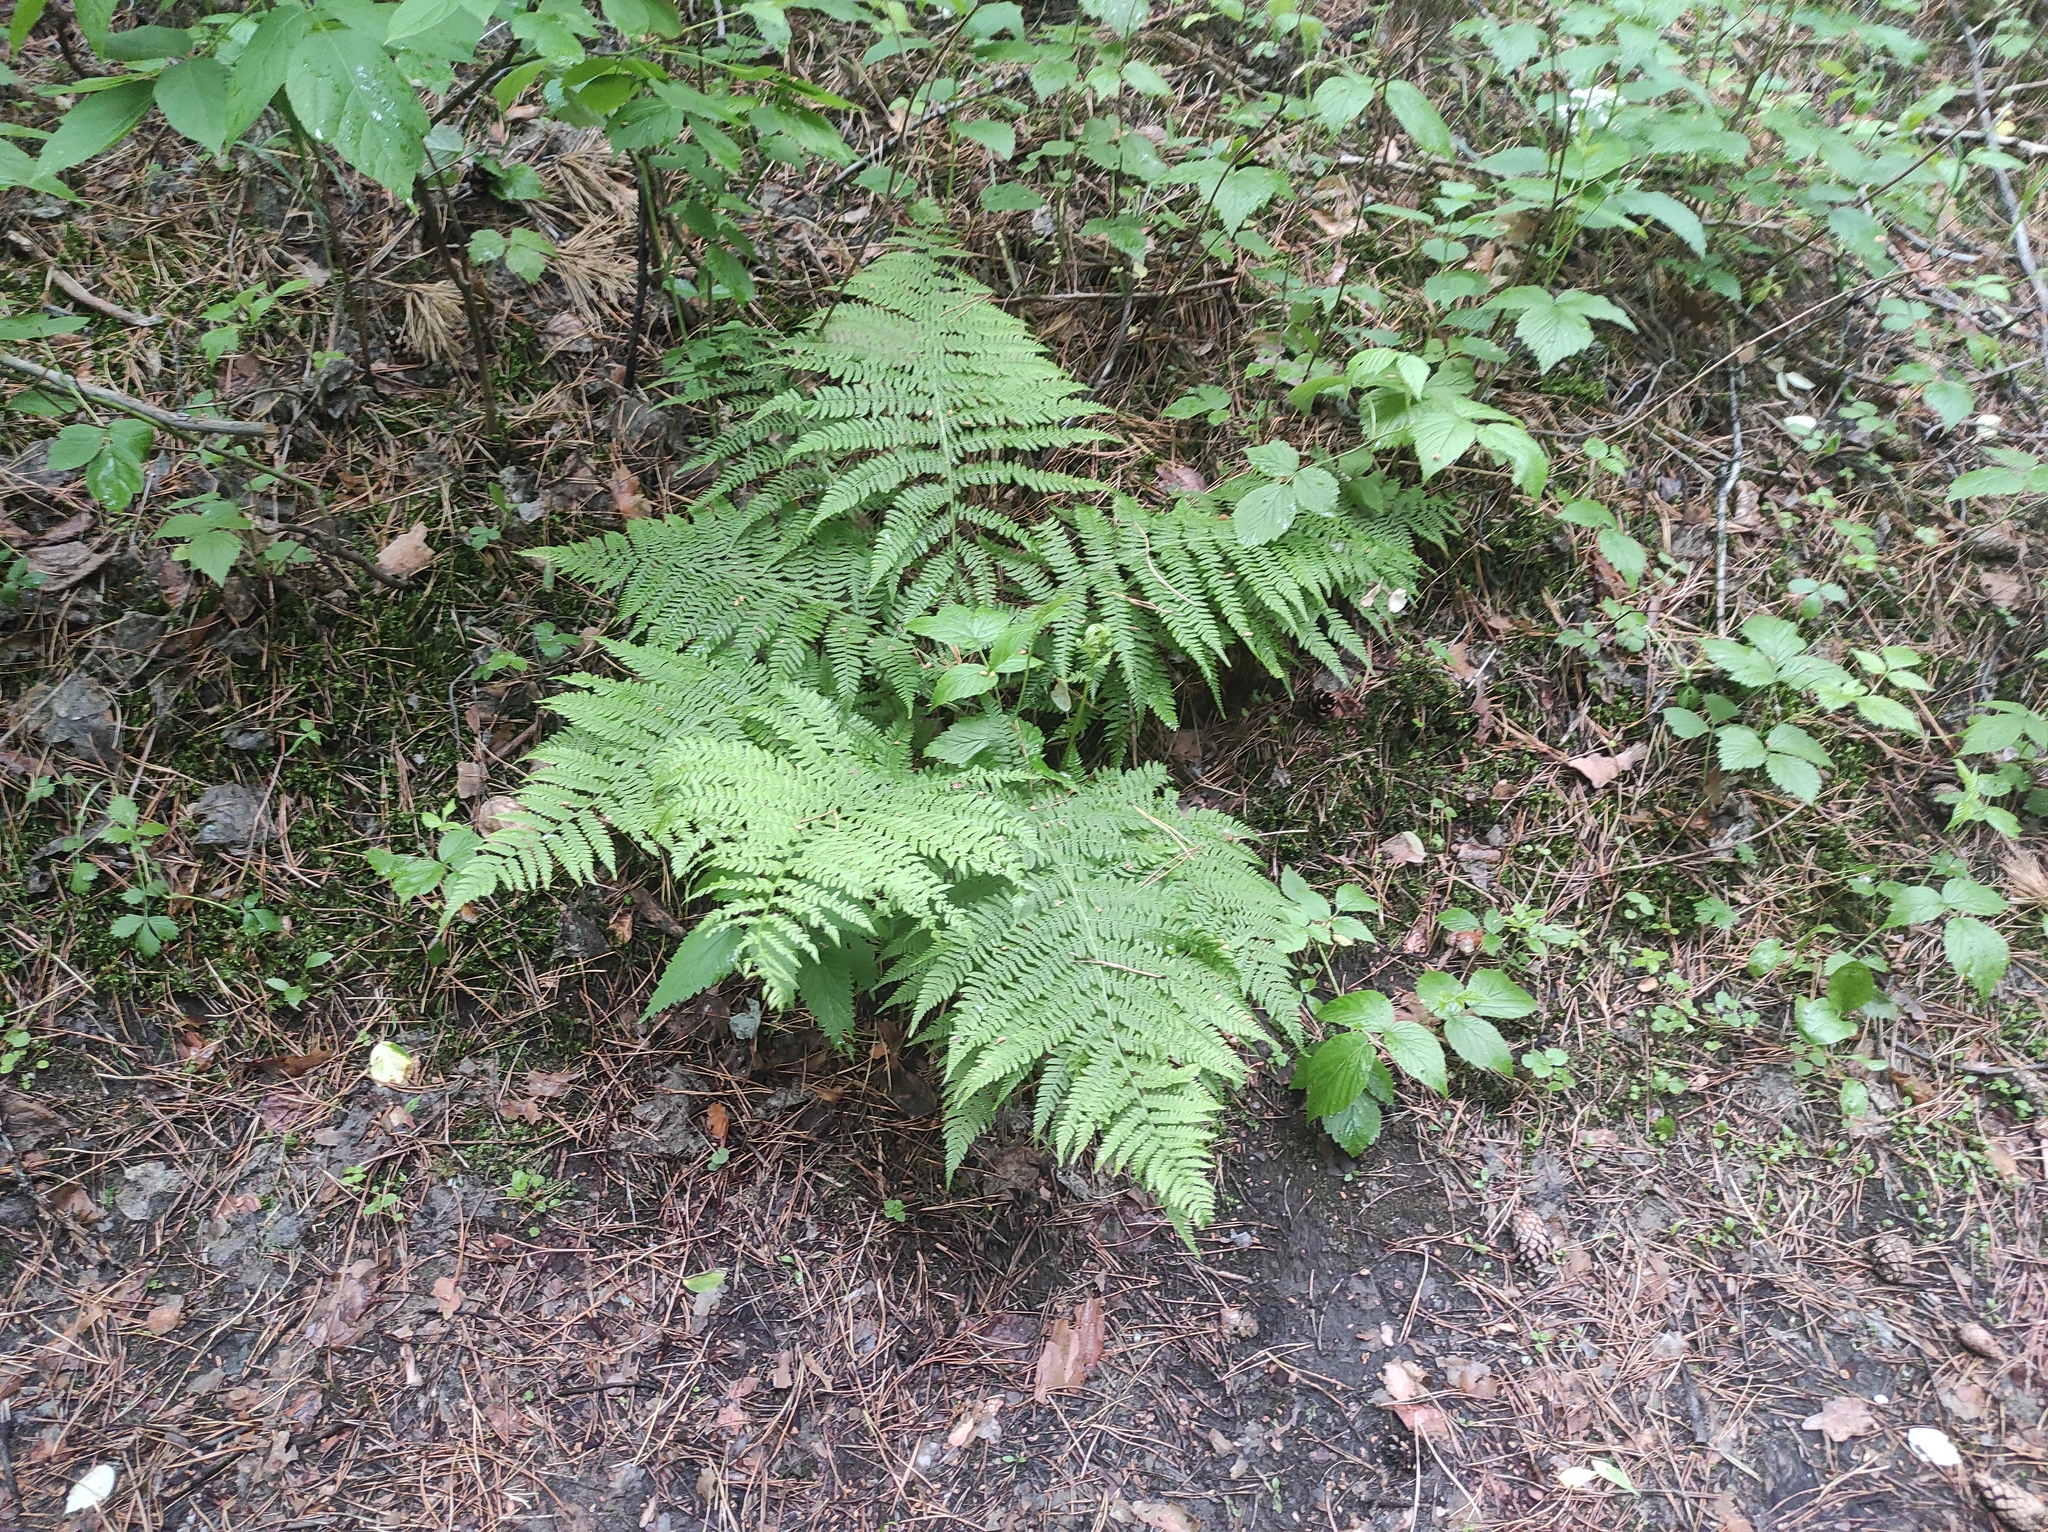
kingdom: Plantae
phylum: Tracheophyta
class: Polypodiopsida
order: Polypodiales
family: Athyriaceae
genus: Athyrium
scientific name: Athyrium filix-femina
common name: Lady fern
